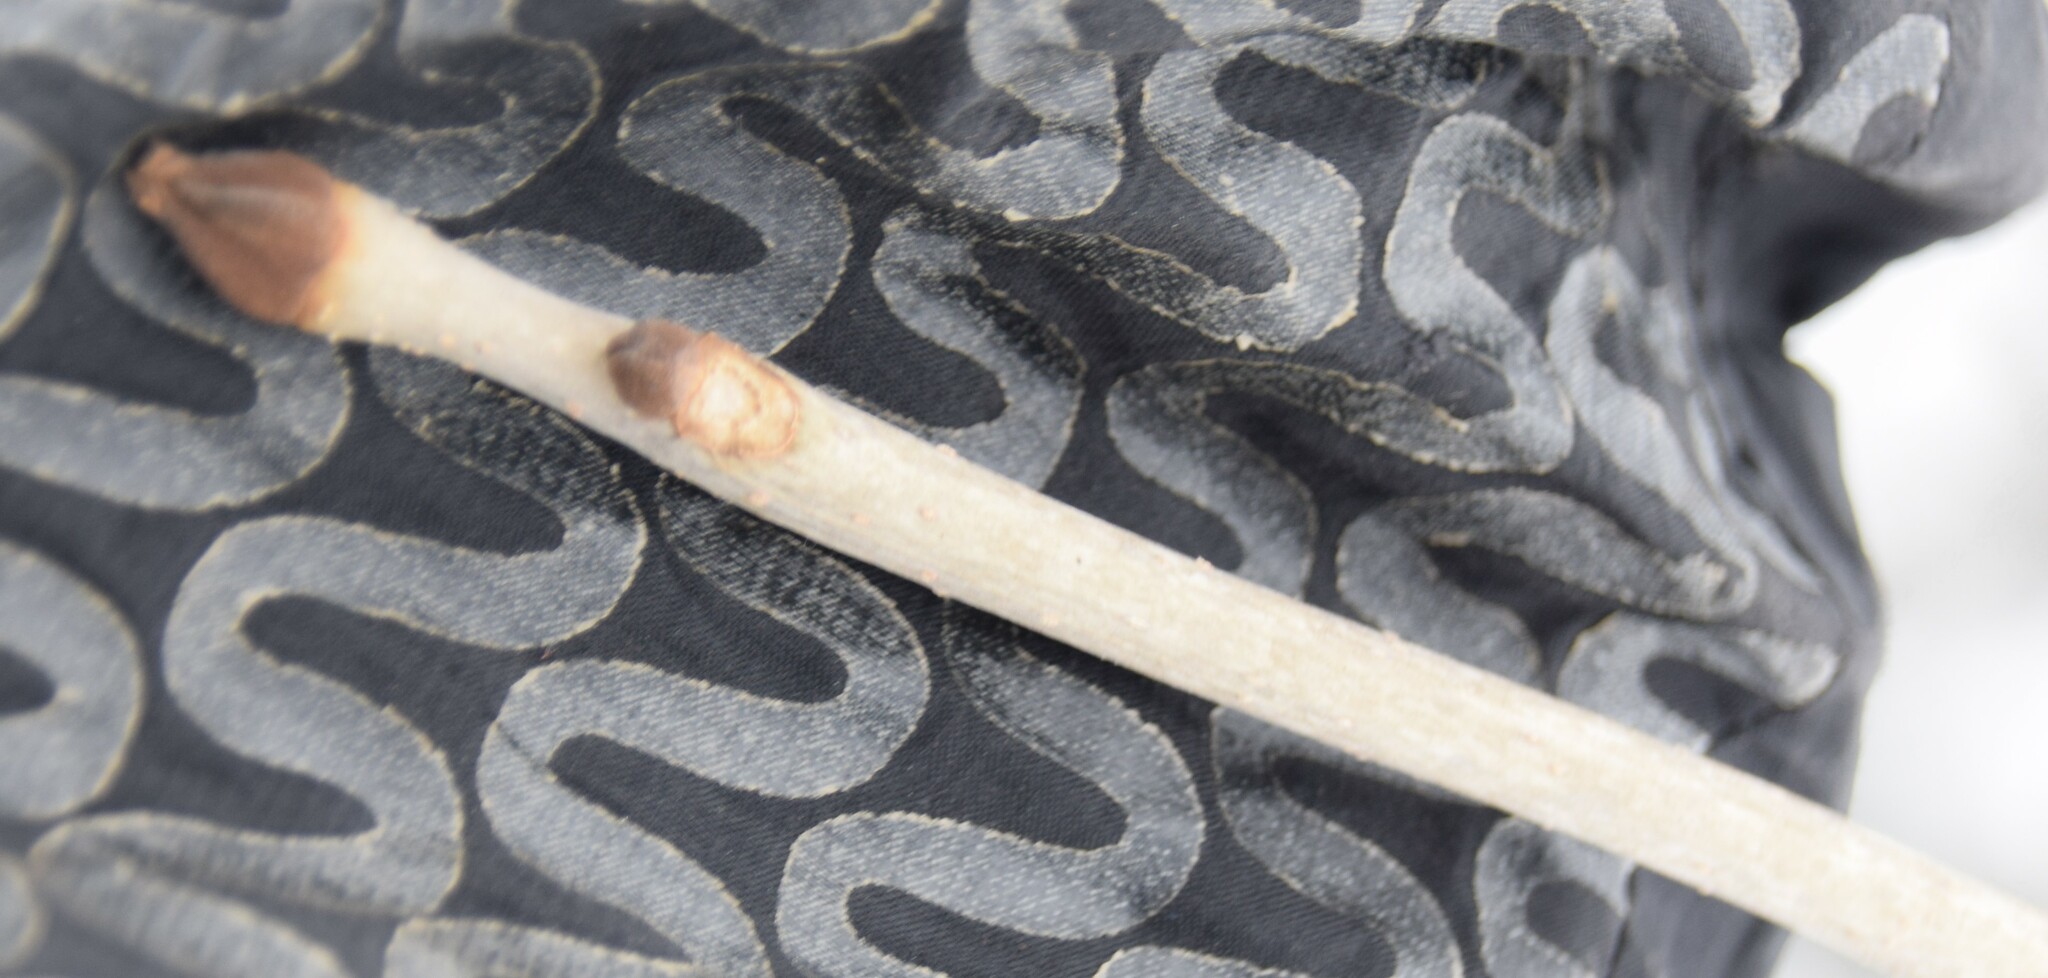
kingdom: Plantae
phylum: Tracheophyta
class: Magnoliopsida
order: Lamiales
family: Oleaceae
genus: Fraxinus
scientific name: Fraxinus nigra
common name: Black ash
